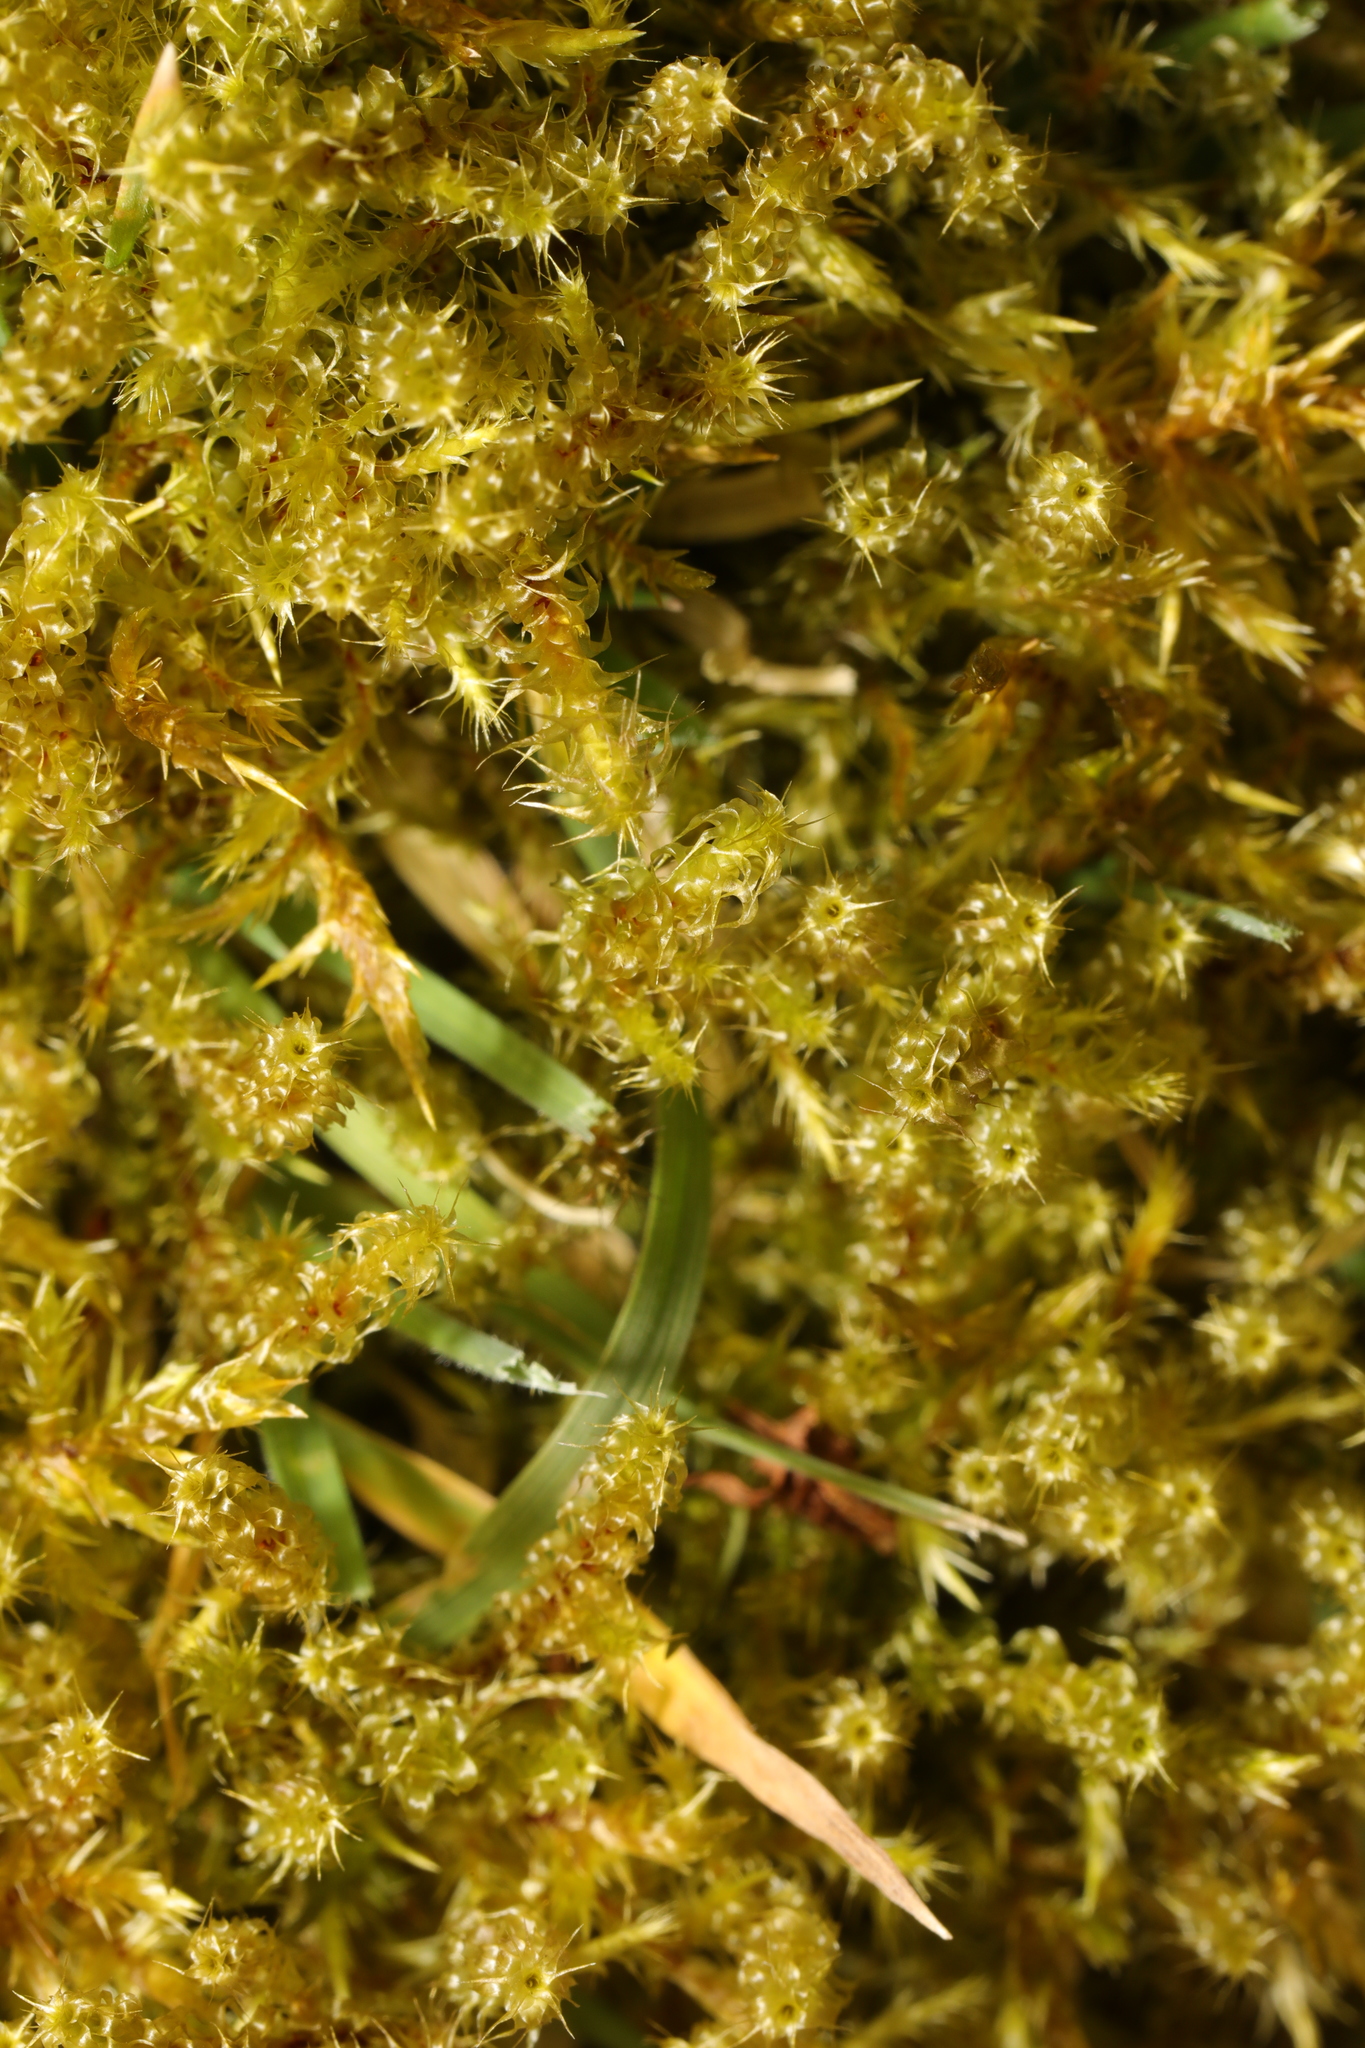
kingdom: Plantae
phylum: Bryophyta
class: Bryopsida
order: Hypnales
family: Hylocomiaceae
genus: Rhytidiadelphus
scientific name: Rhytidiadelphus squarrosus
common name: Springy turf-moss
